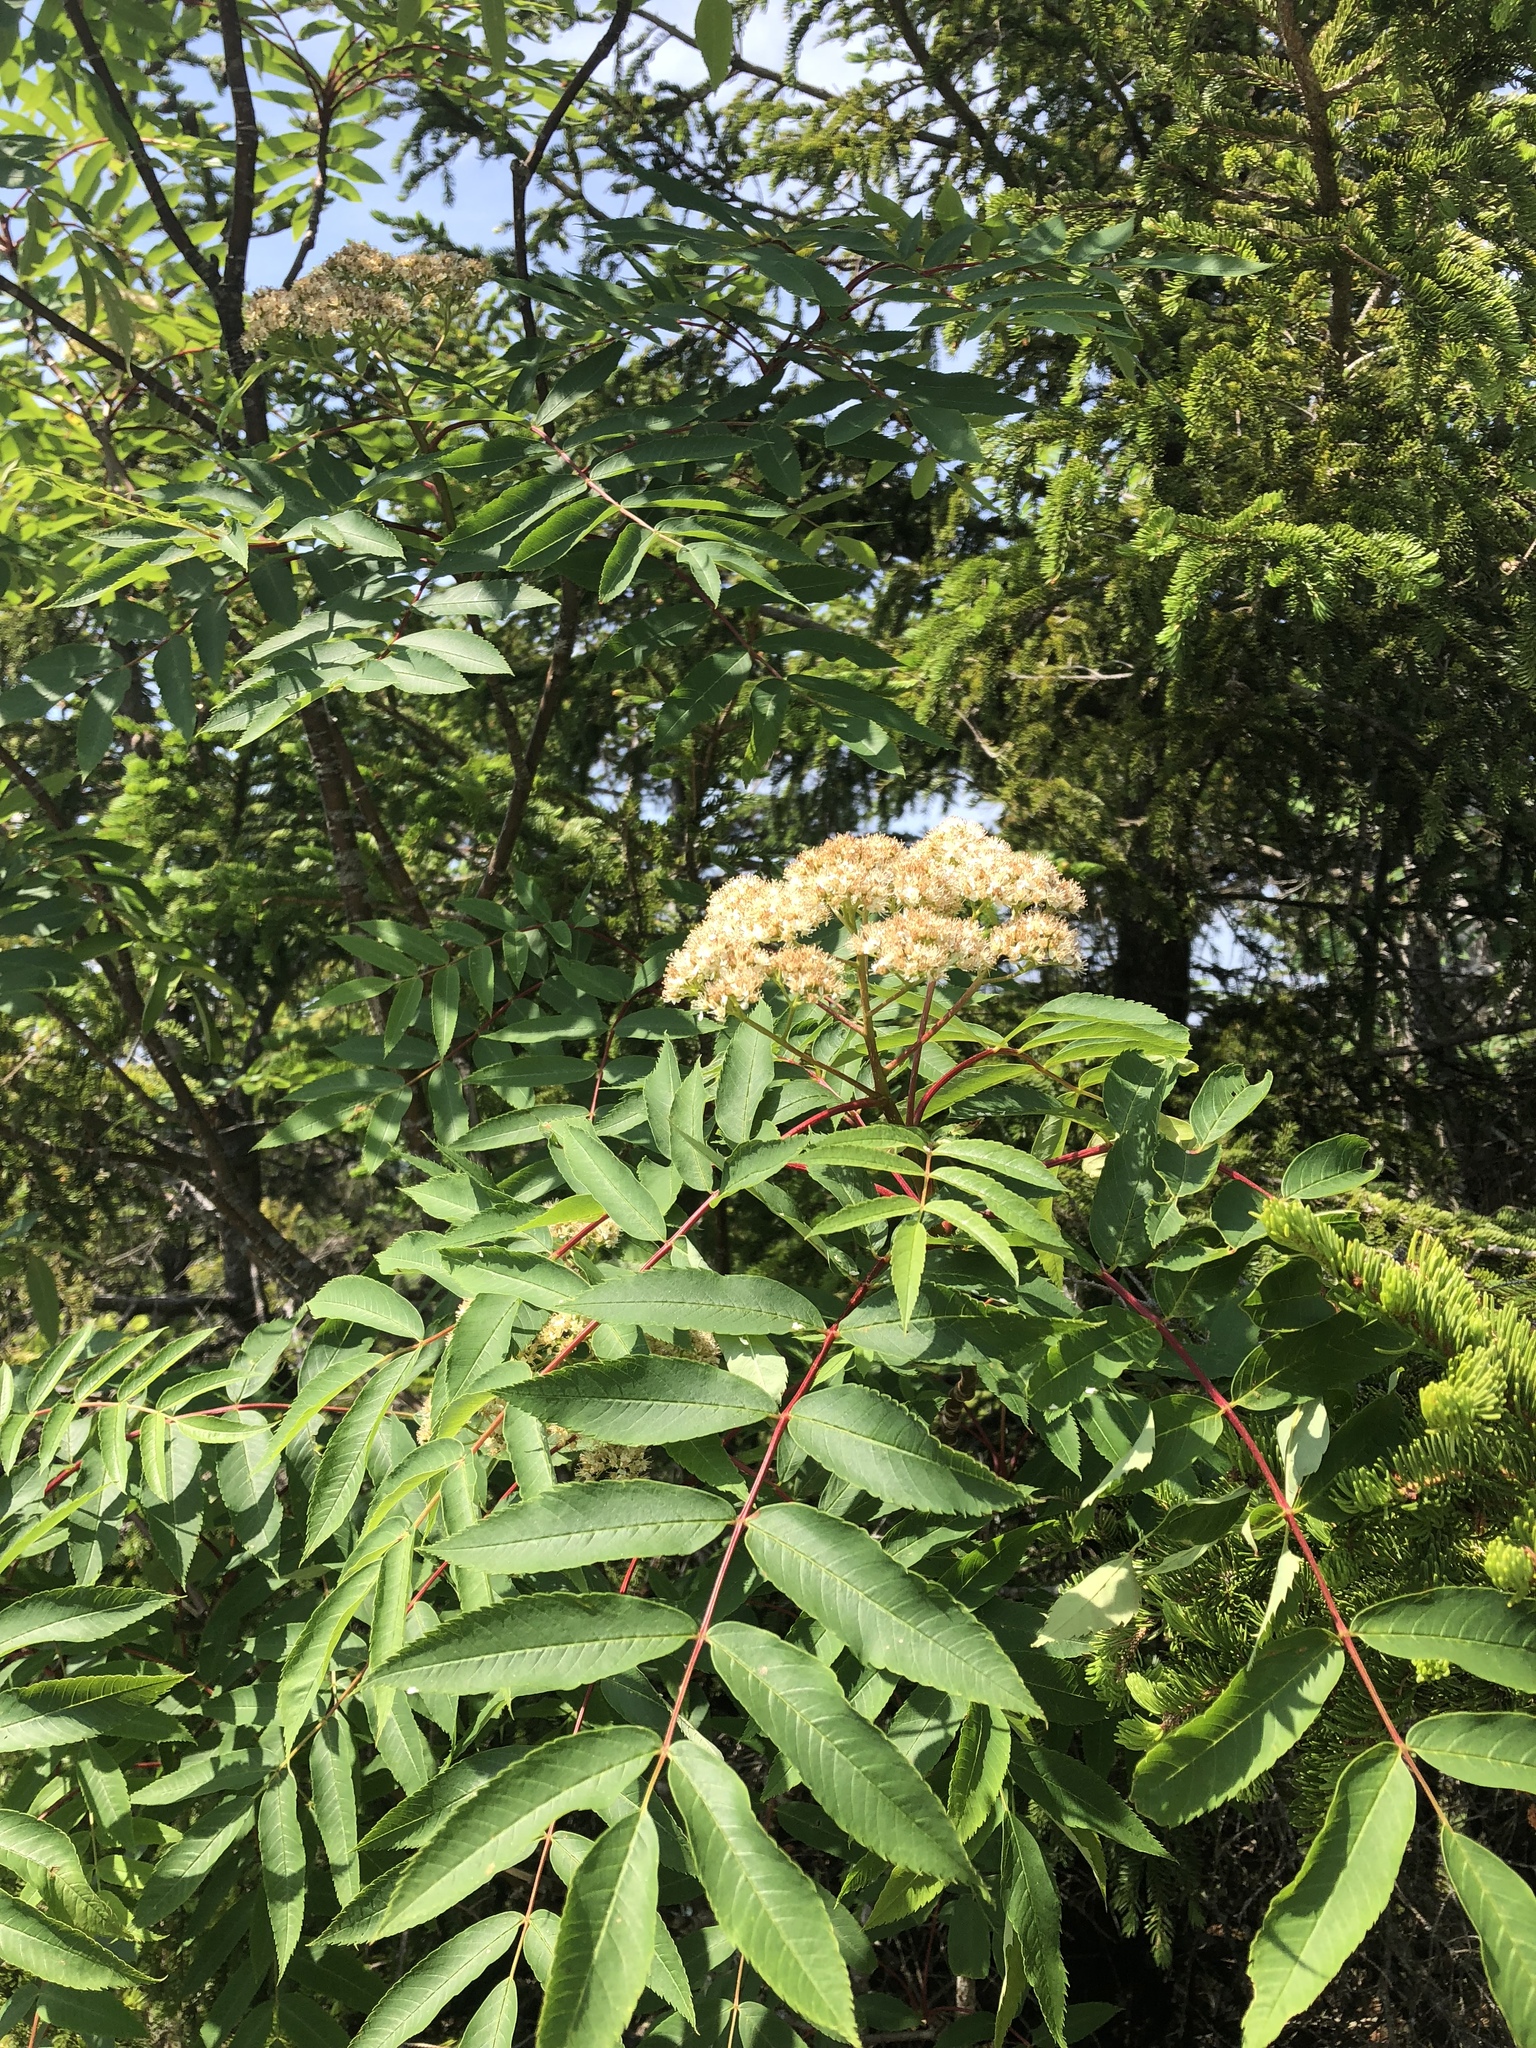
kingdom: Plantae
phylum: Tracheophyta
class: Magnoliopsida
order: Rosales
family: Rosaceae
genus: Sorbus
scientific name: Sorbus americana
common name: American mountain-ash
